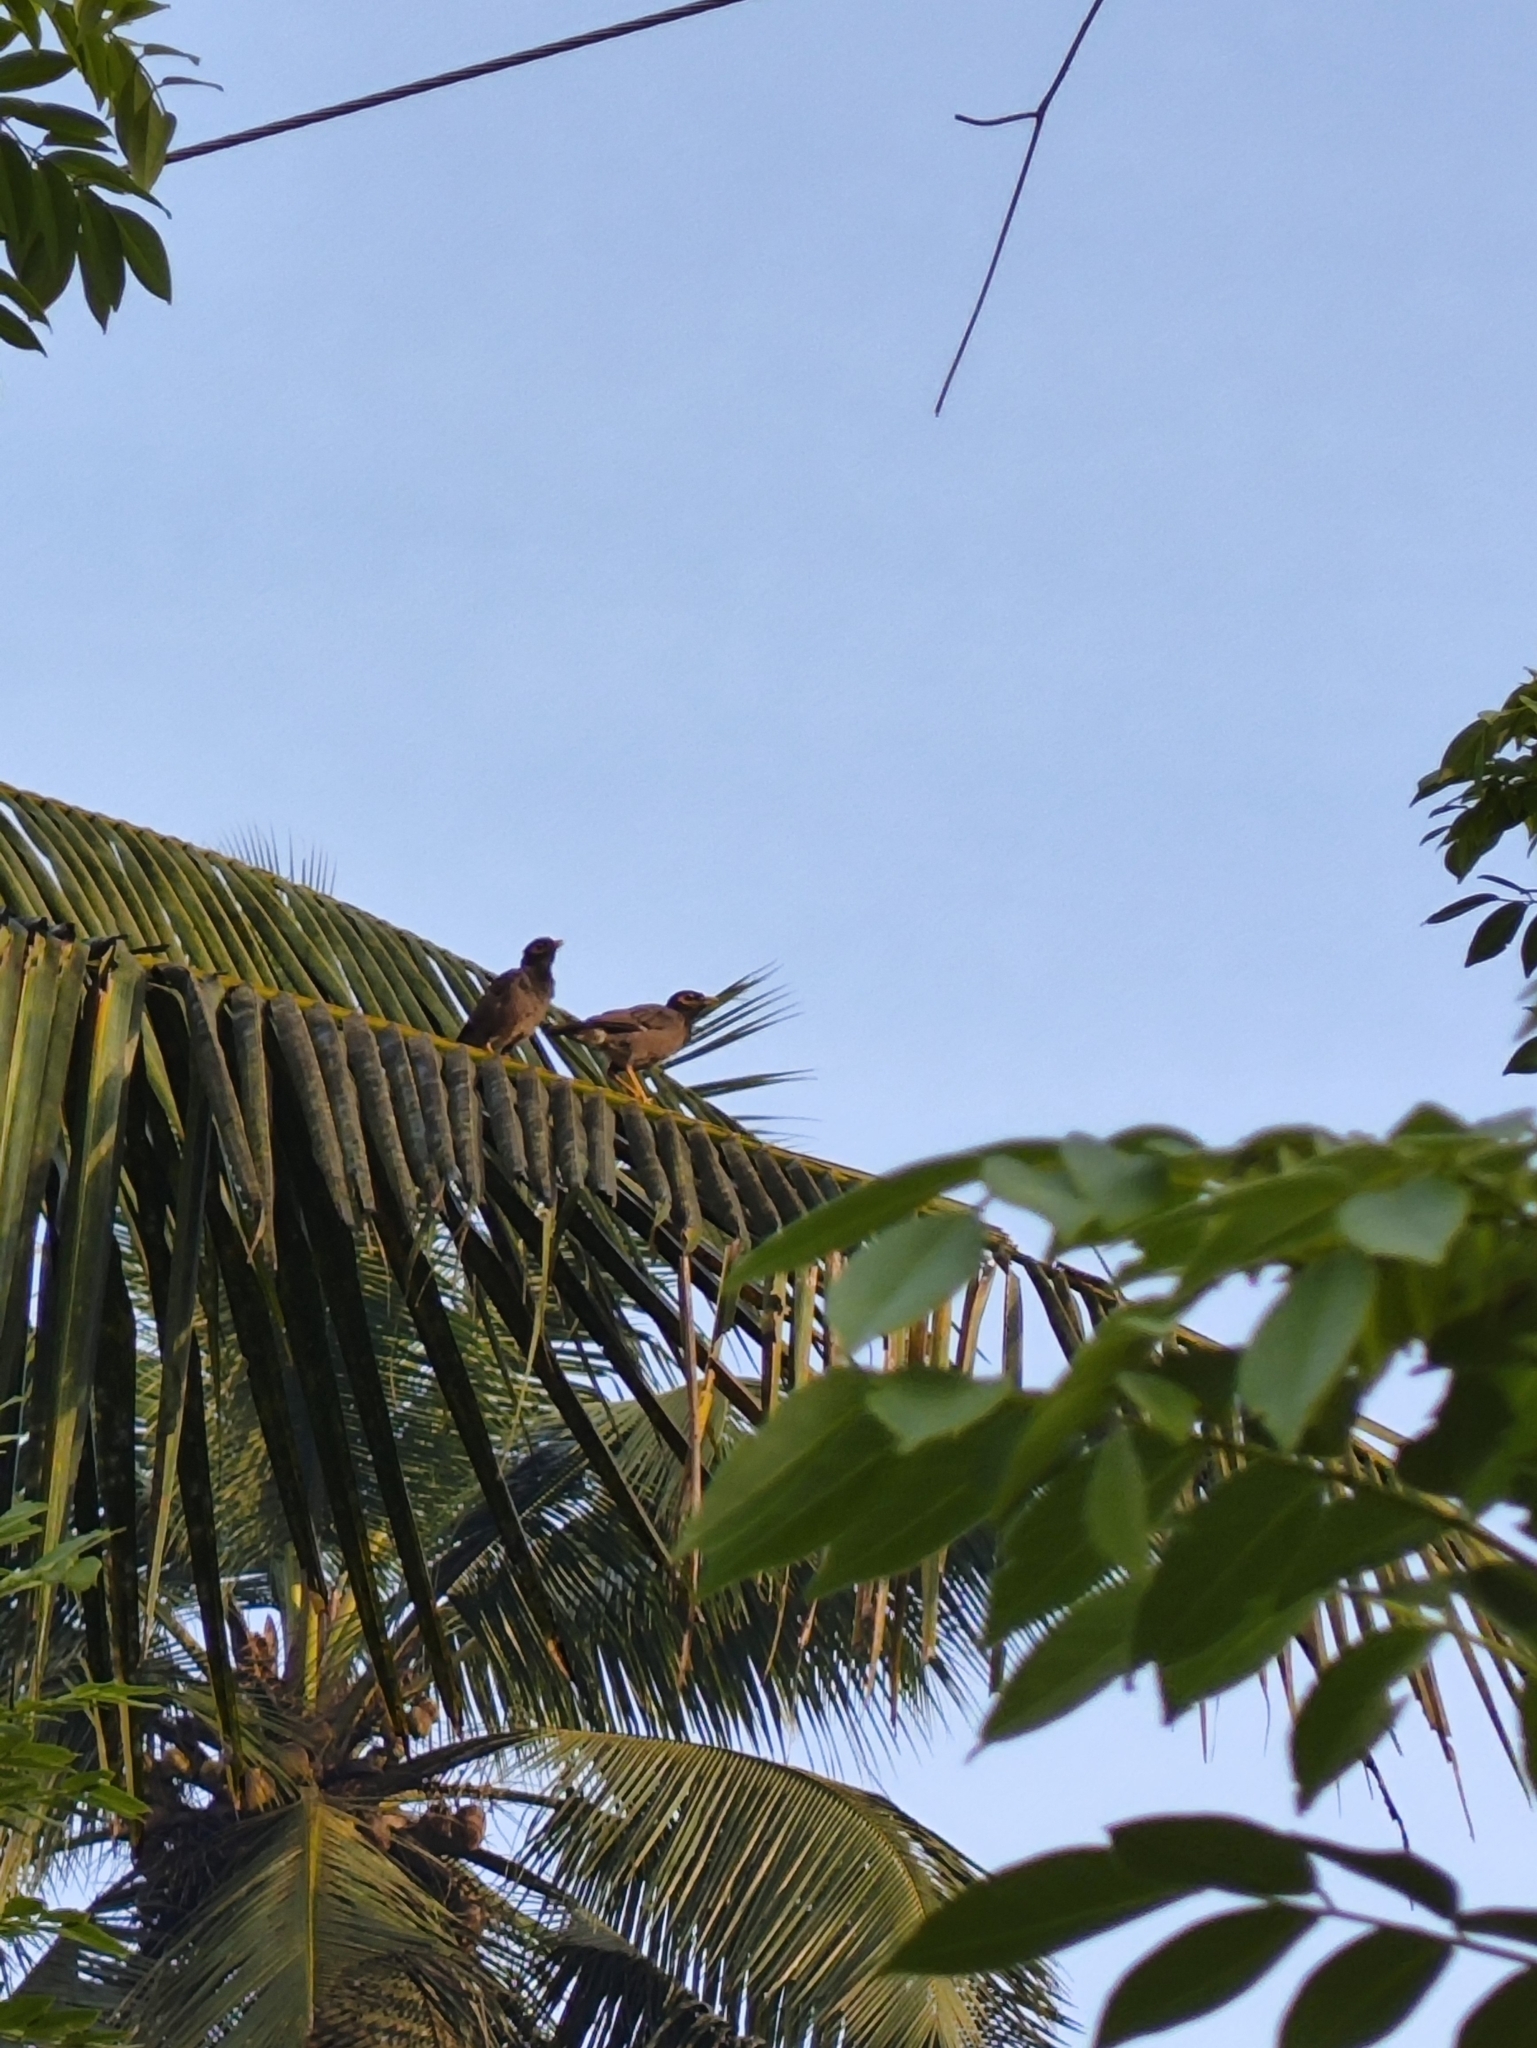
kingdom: Animalia
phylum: Chordata
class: Aves
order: Passeriformes
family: Sturnidae
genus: Acridotheres
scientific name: Acridotheres tristis
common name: Common myna
